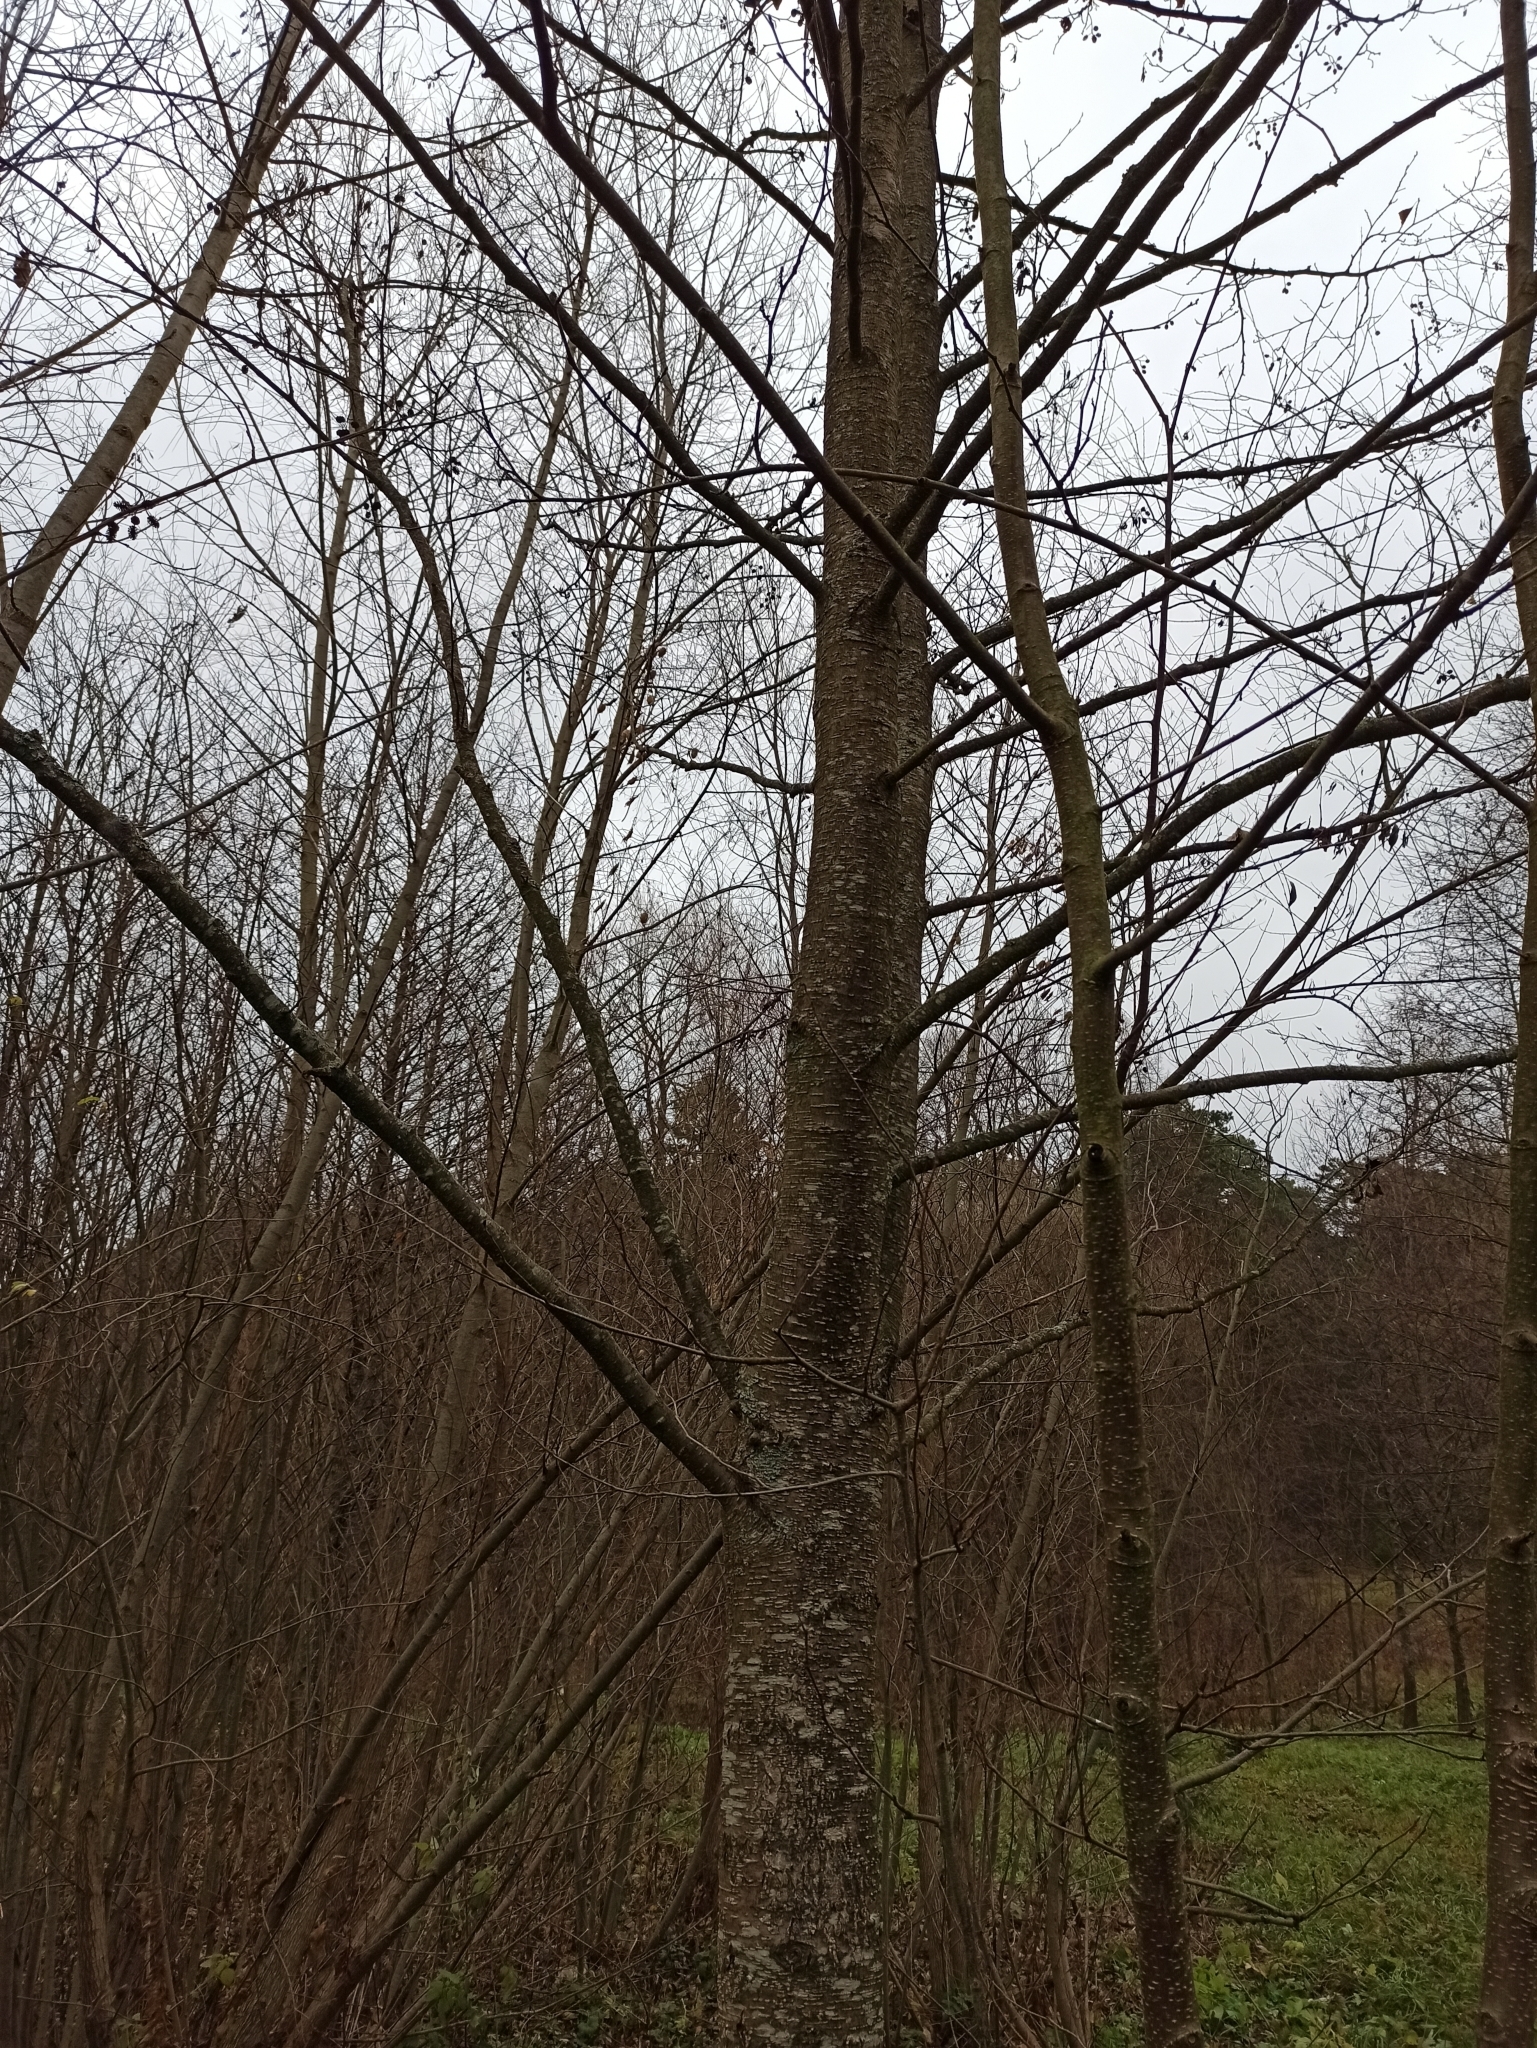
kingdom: Plantae
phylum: Tracheophyta
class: Magnoliopsida
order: Fagales
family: Betulaceae
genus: Alnus
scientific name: Alnus glutinosa
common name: Black alder
